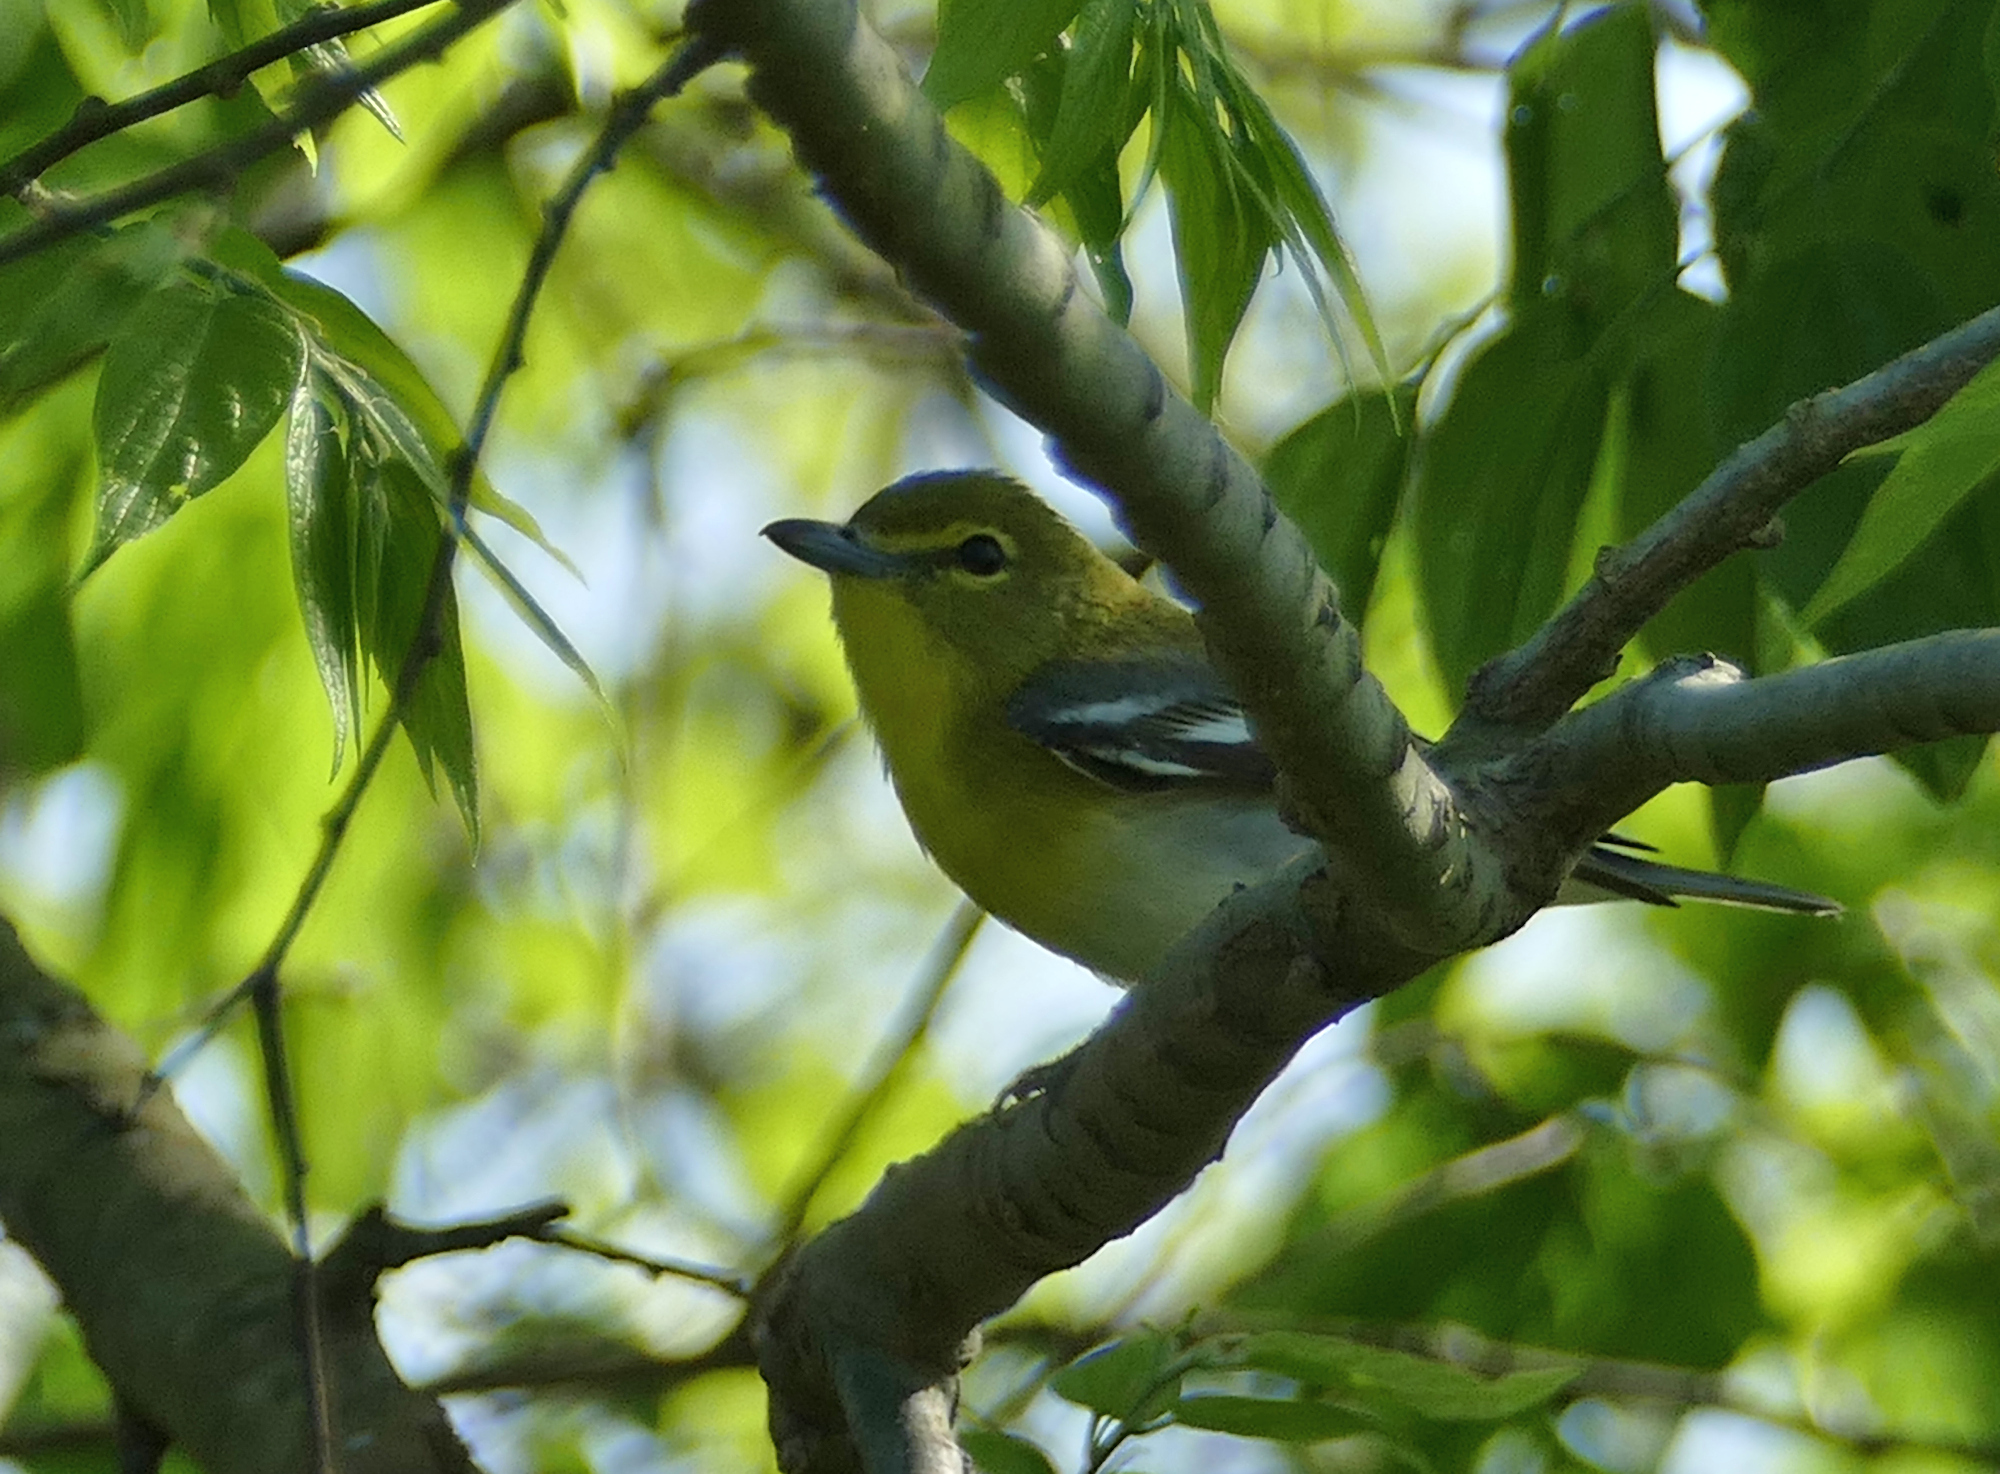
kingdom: Animalia
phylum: Chordata
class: Aves
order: Passeriformes
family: Vireonidae
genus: Vireo
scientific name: Vireo flavifrons
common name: Yellow-throated vireo
